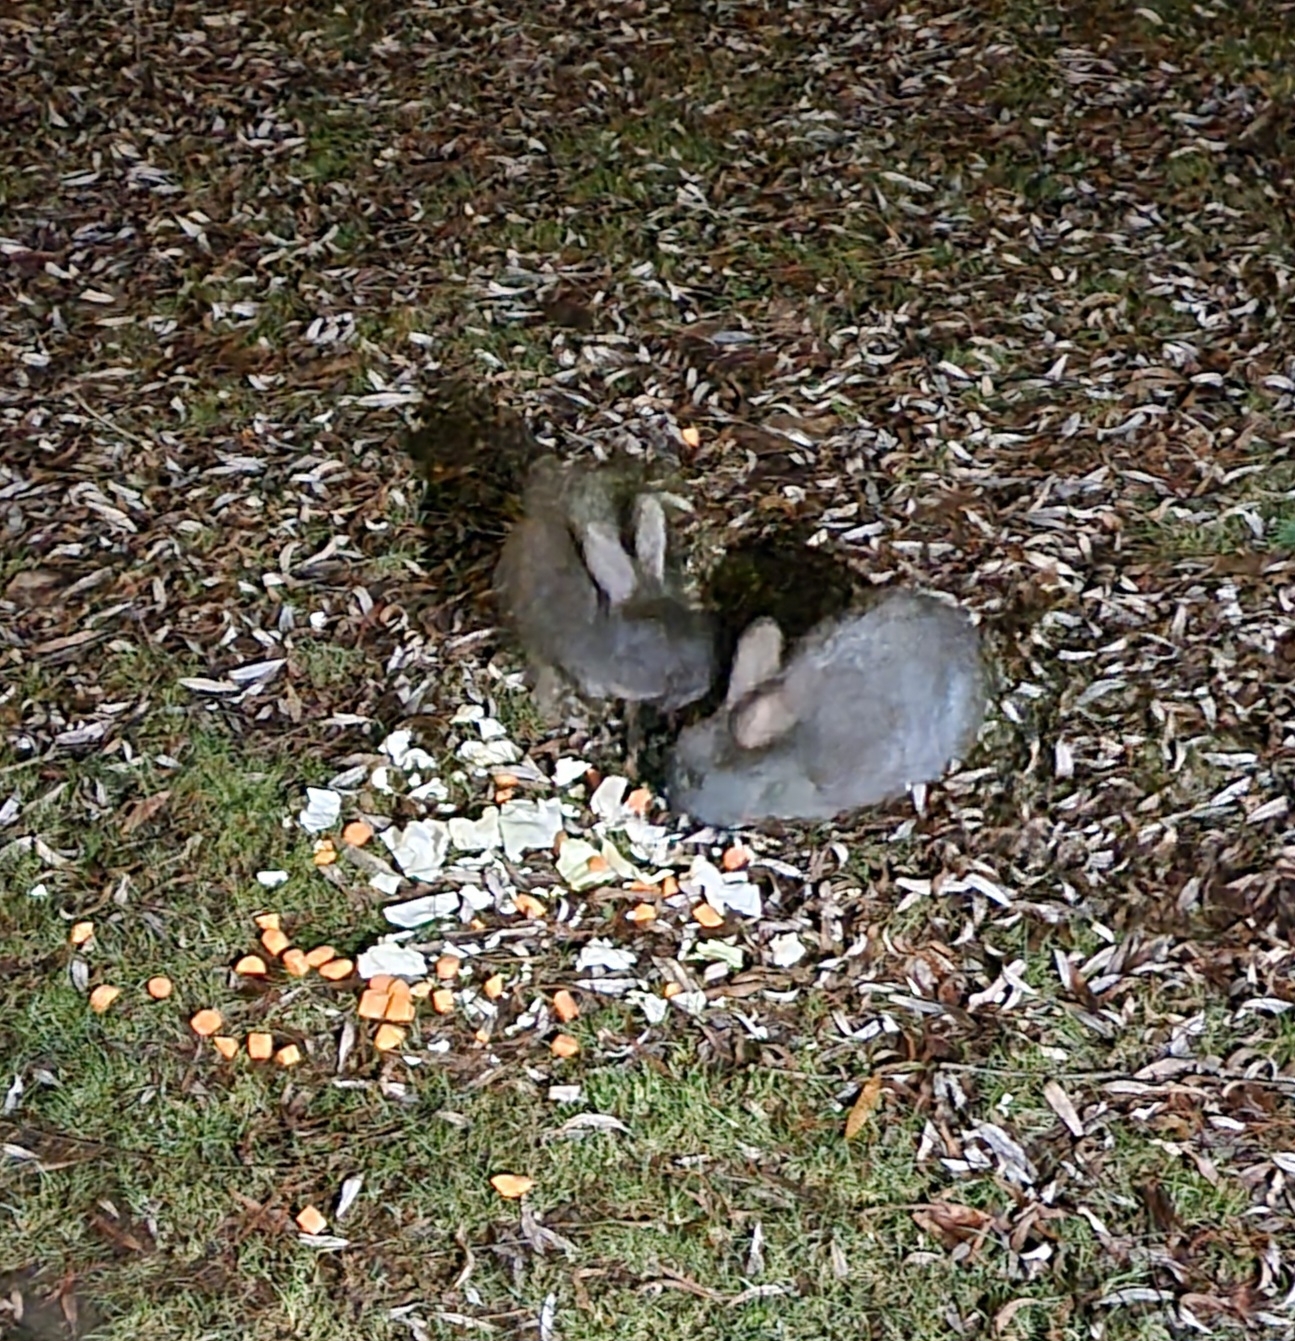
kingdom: Animalia
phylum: Chordata
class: Mammalia
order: Lagomorpha
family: Leporidae
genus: Oryctolagus
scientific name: Oryctolagus cuniculus
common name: European rabbit
